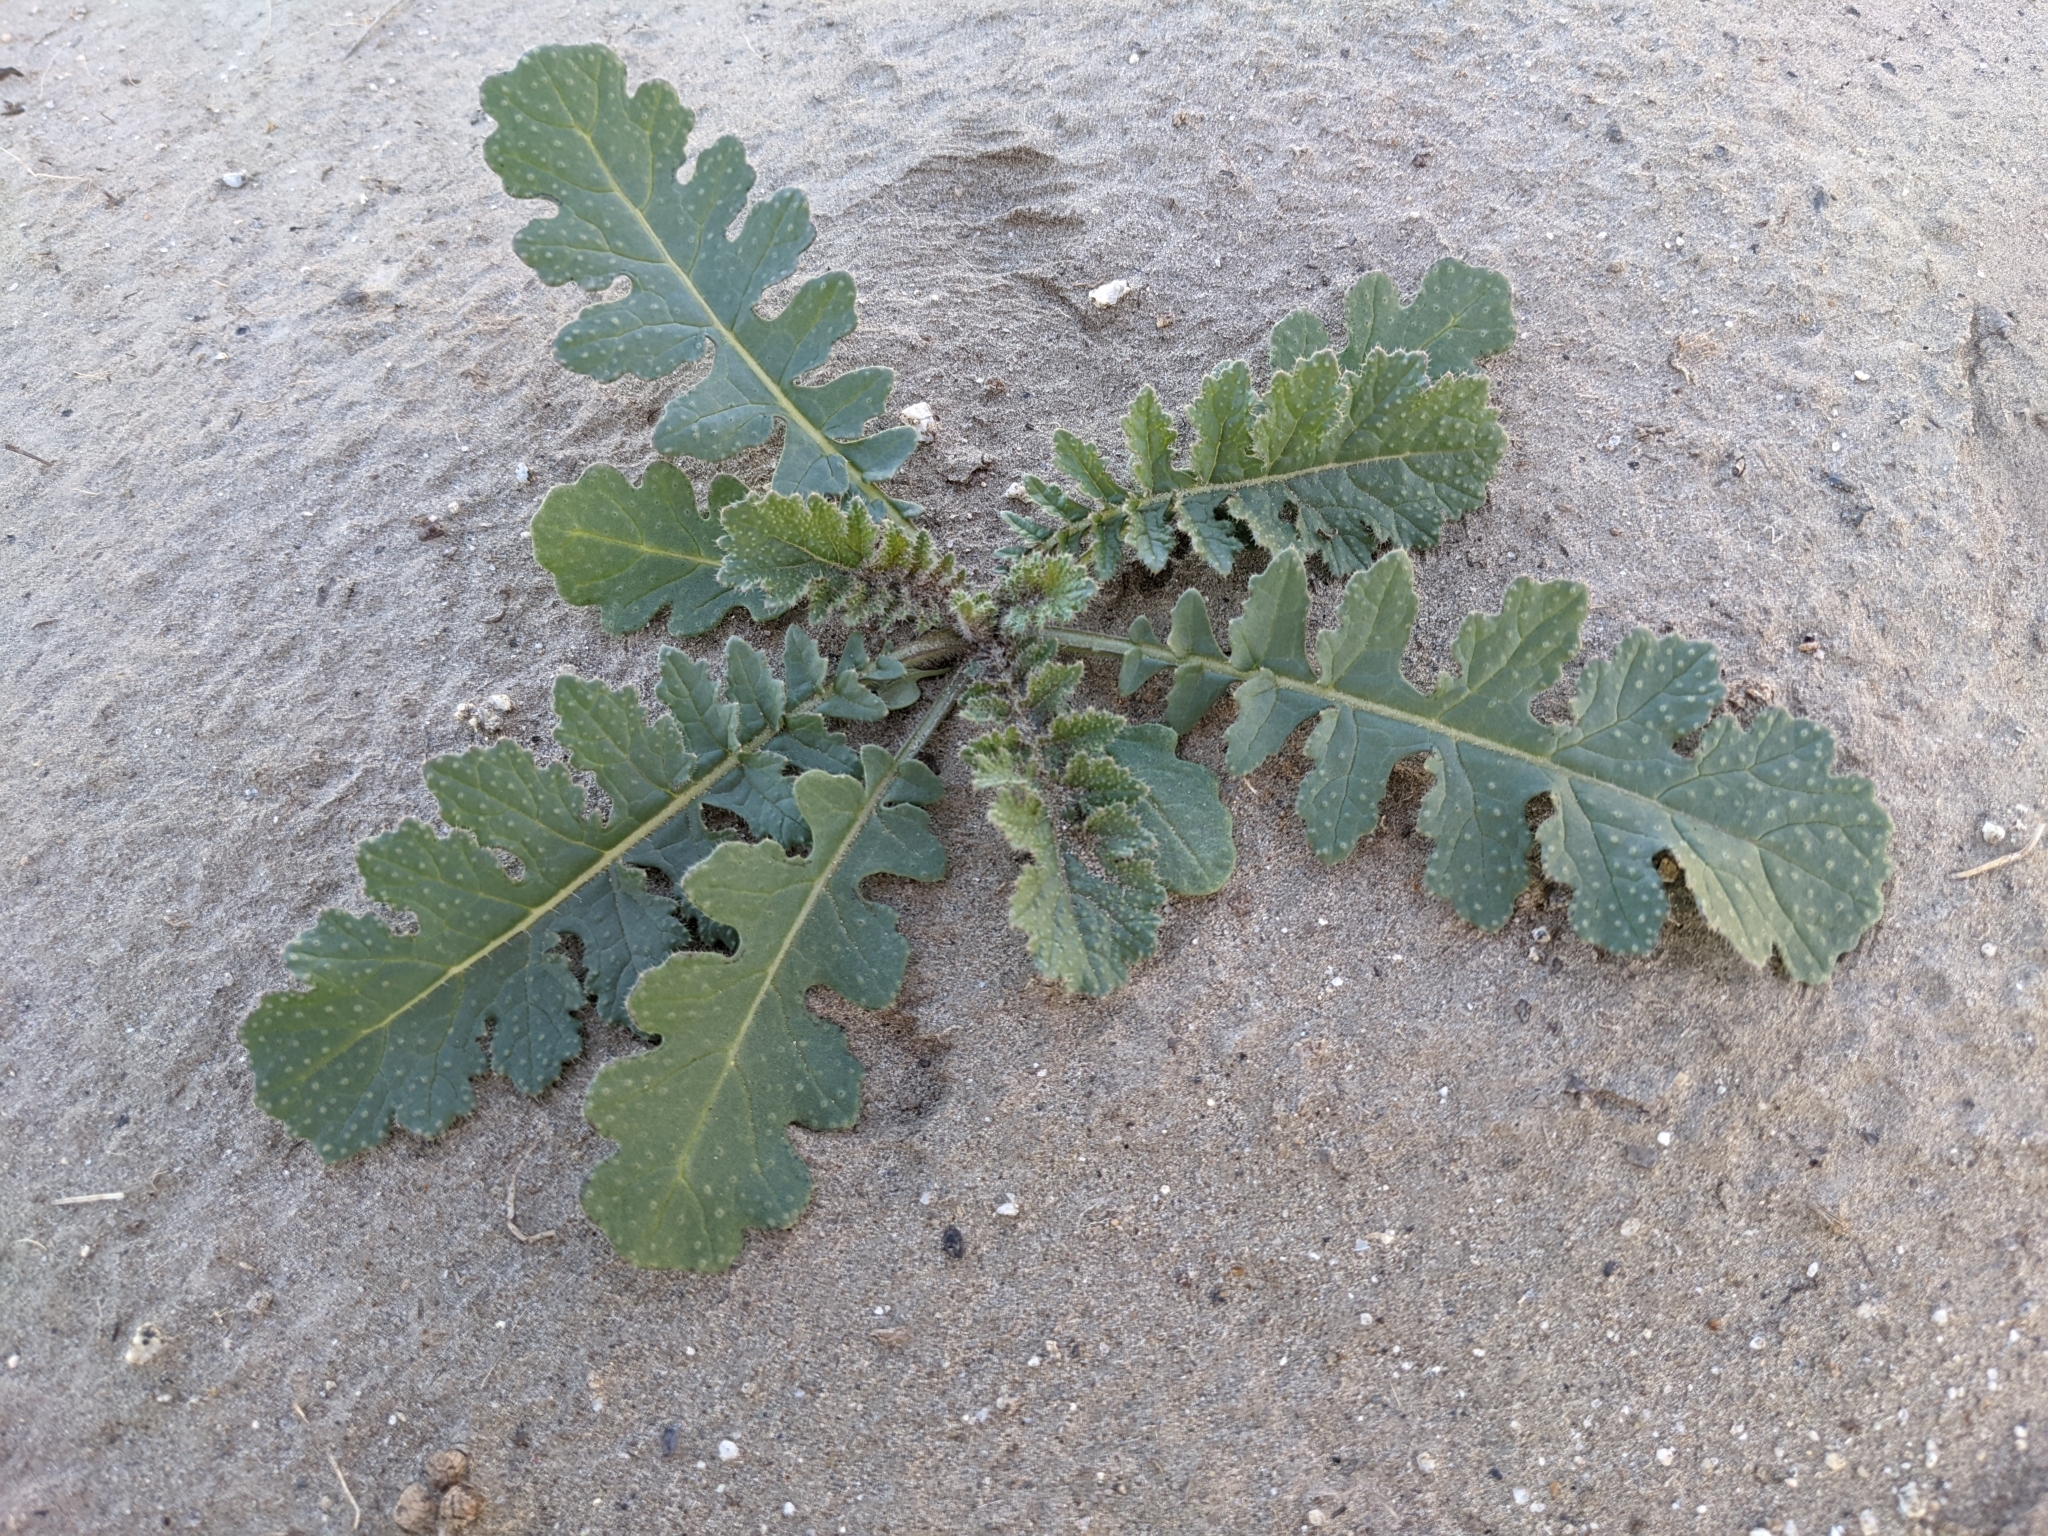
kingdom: Plantae
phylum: Tracheophyta
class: Magnoliopsida
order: Brassicales
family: Brassicaceae
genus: Brassica
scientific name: Brassica tournefortii
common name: Pale cabbage
